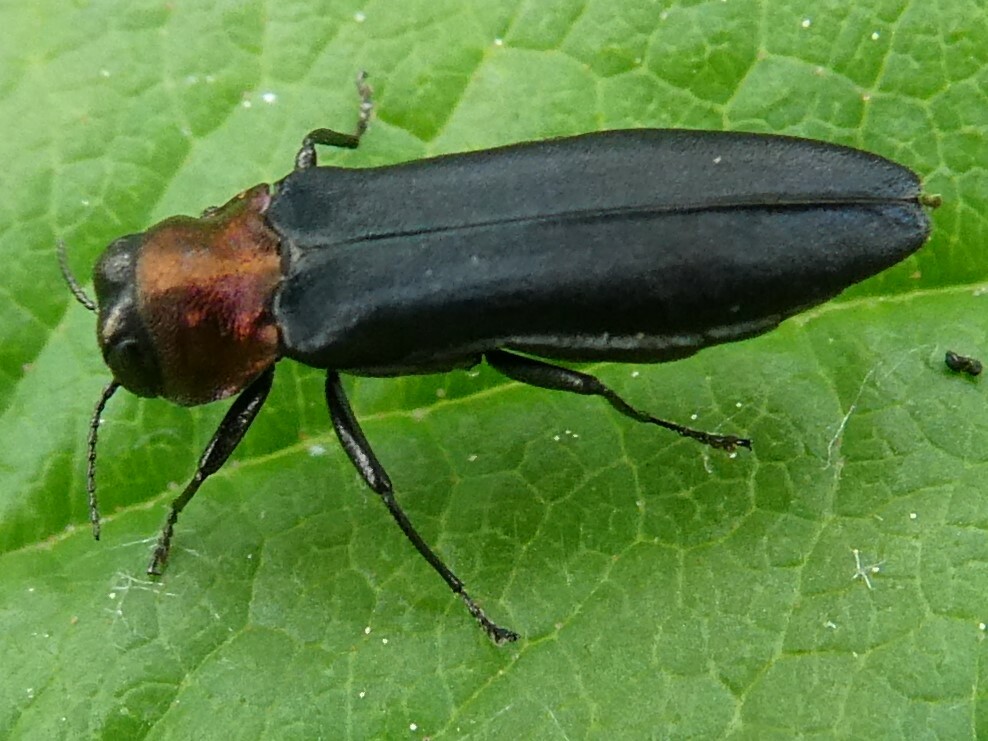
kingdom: Animalia
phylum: Arthropoda
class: Insecta
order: Coleoptera
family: Buprestidae
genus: Agrilus
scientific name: Agrilus ruficollis
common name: Red-necked cane borer beetle
